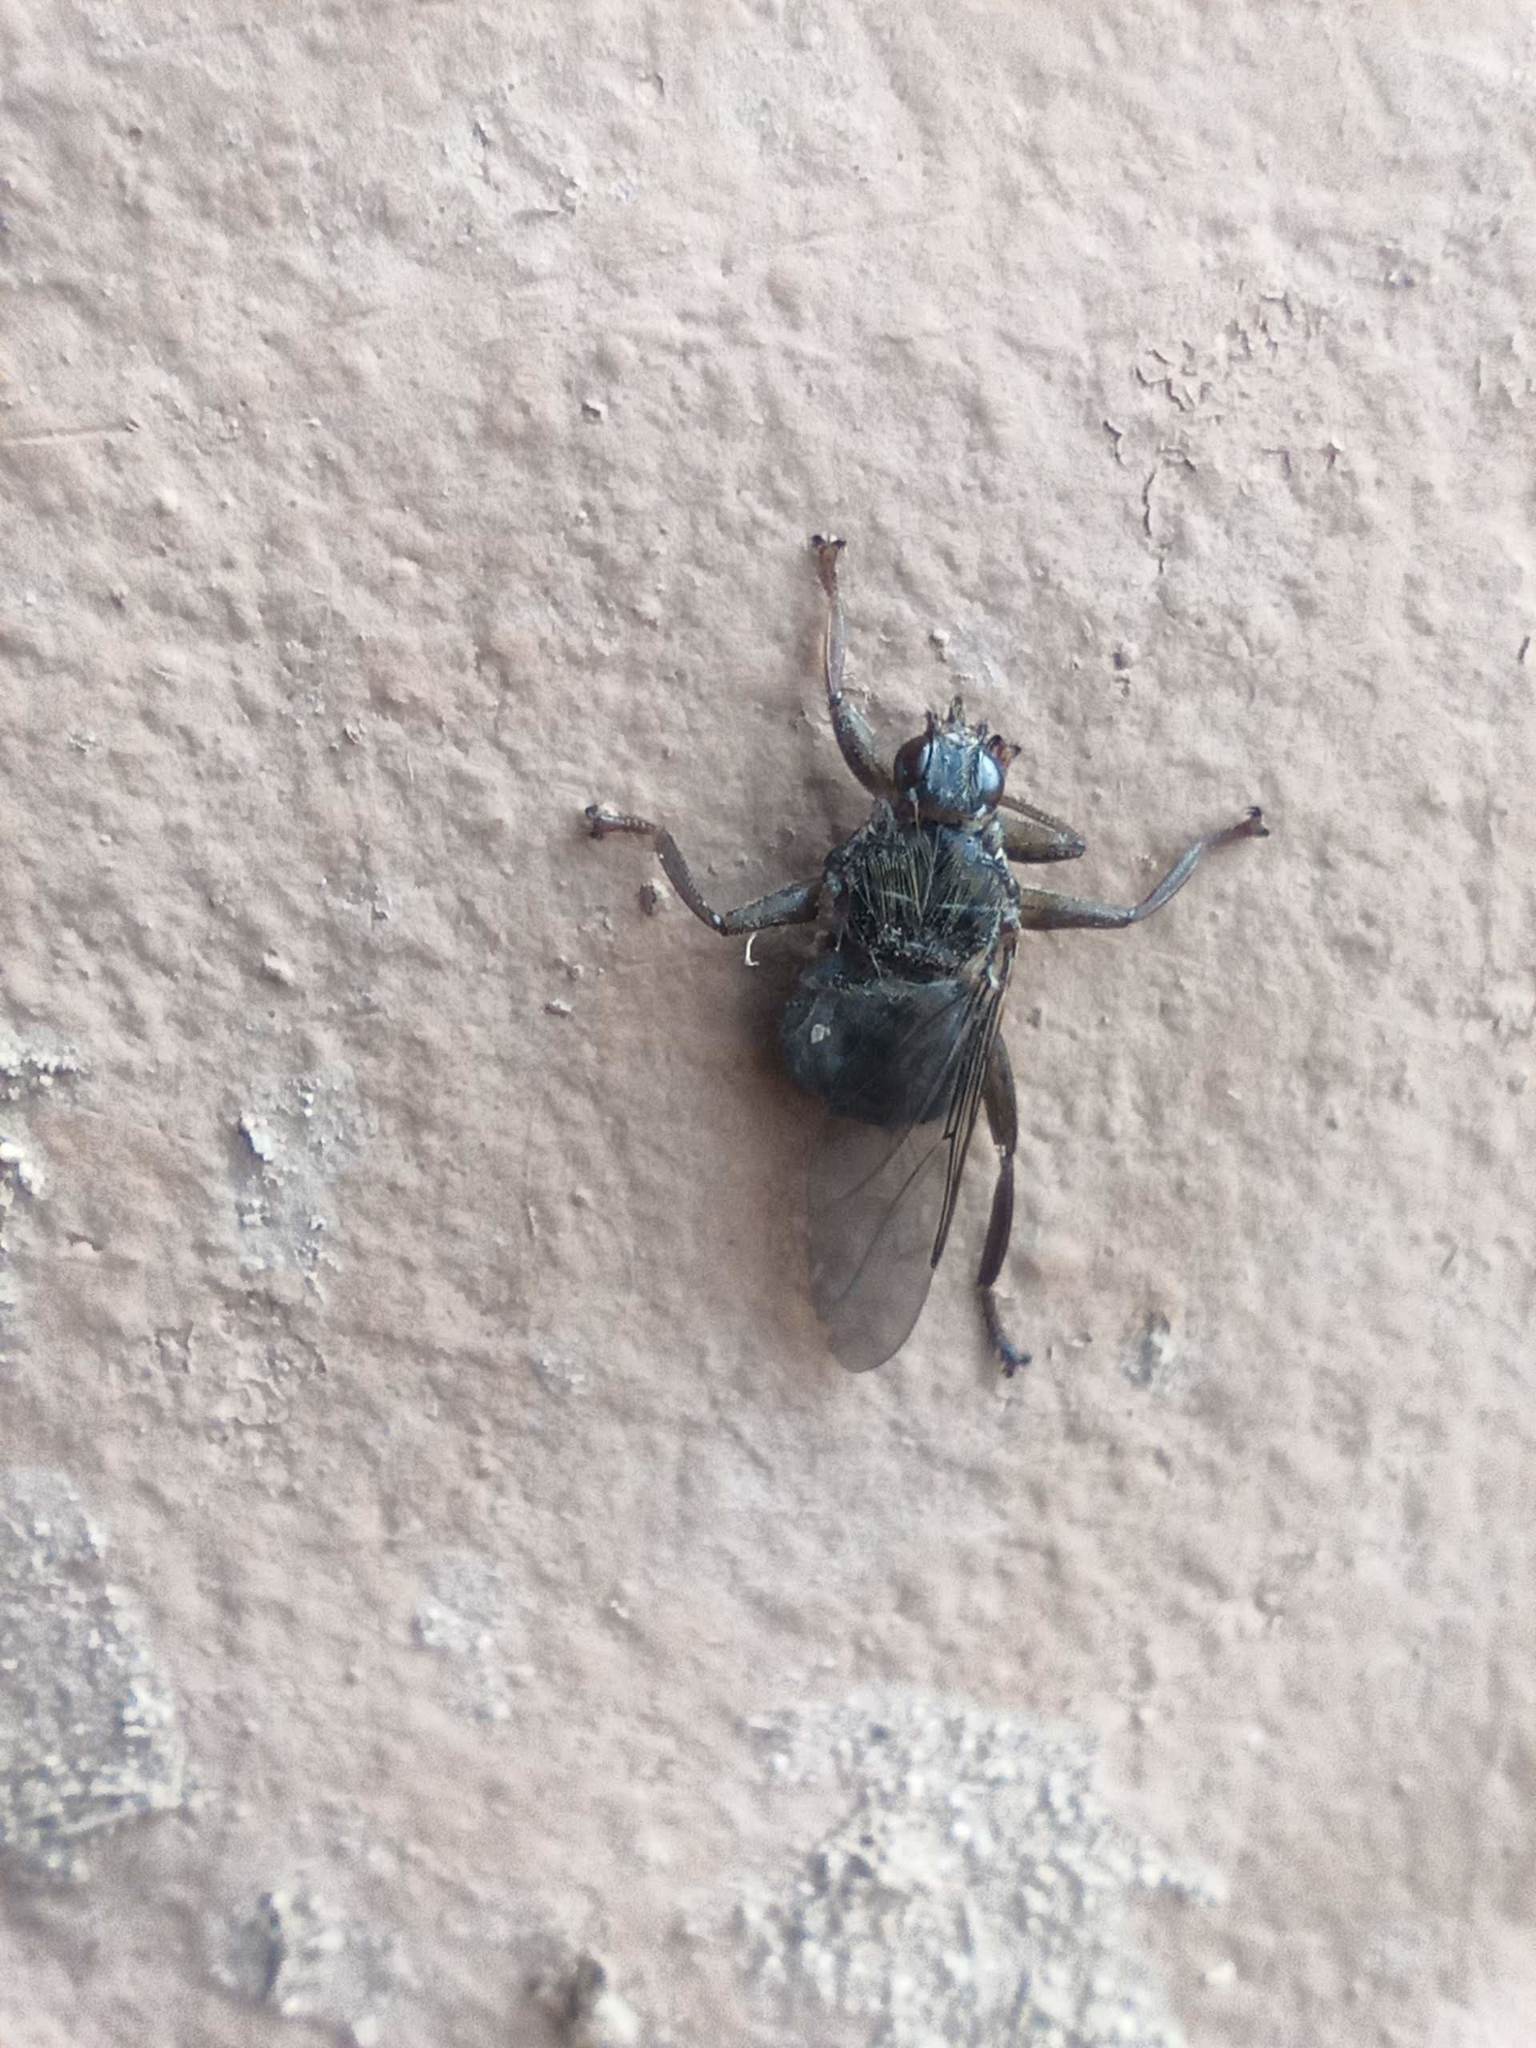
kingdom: Animalia
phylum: Arthropoda
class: Insecta
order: Diptera
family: Hippoboscidae
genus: Pseudolynchia
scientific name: Pseudolynchia canariensis
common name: Louse fly
